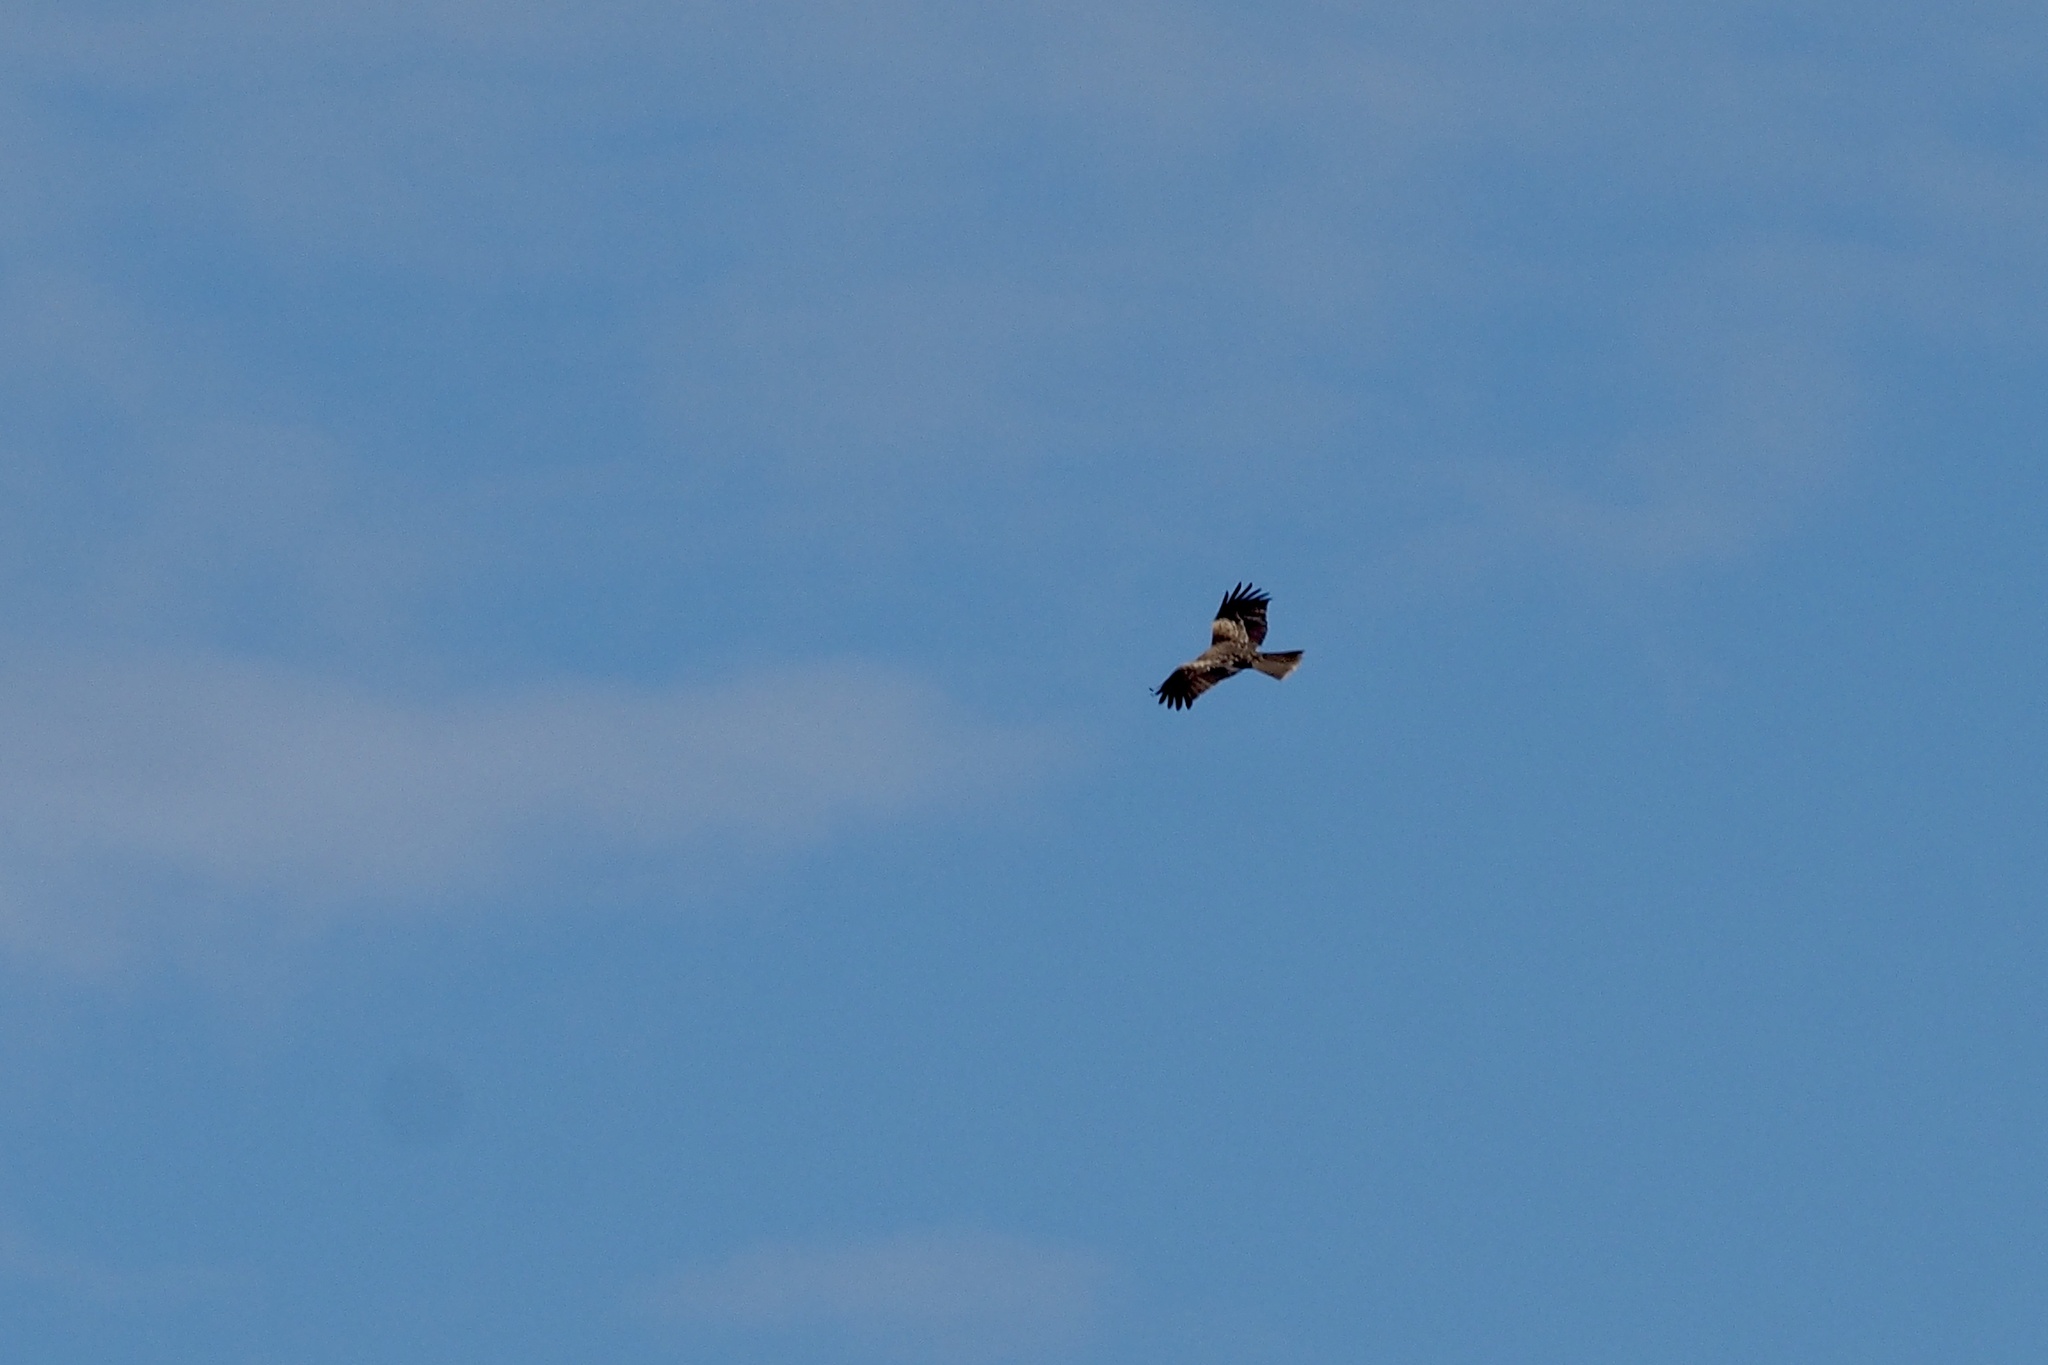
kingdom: Animalia
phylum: Chordata
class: Aves
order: Accipitriformes
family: Accipitridae
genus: Milvus
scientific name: Milvus migrans
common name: Black kite
